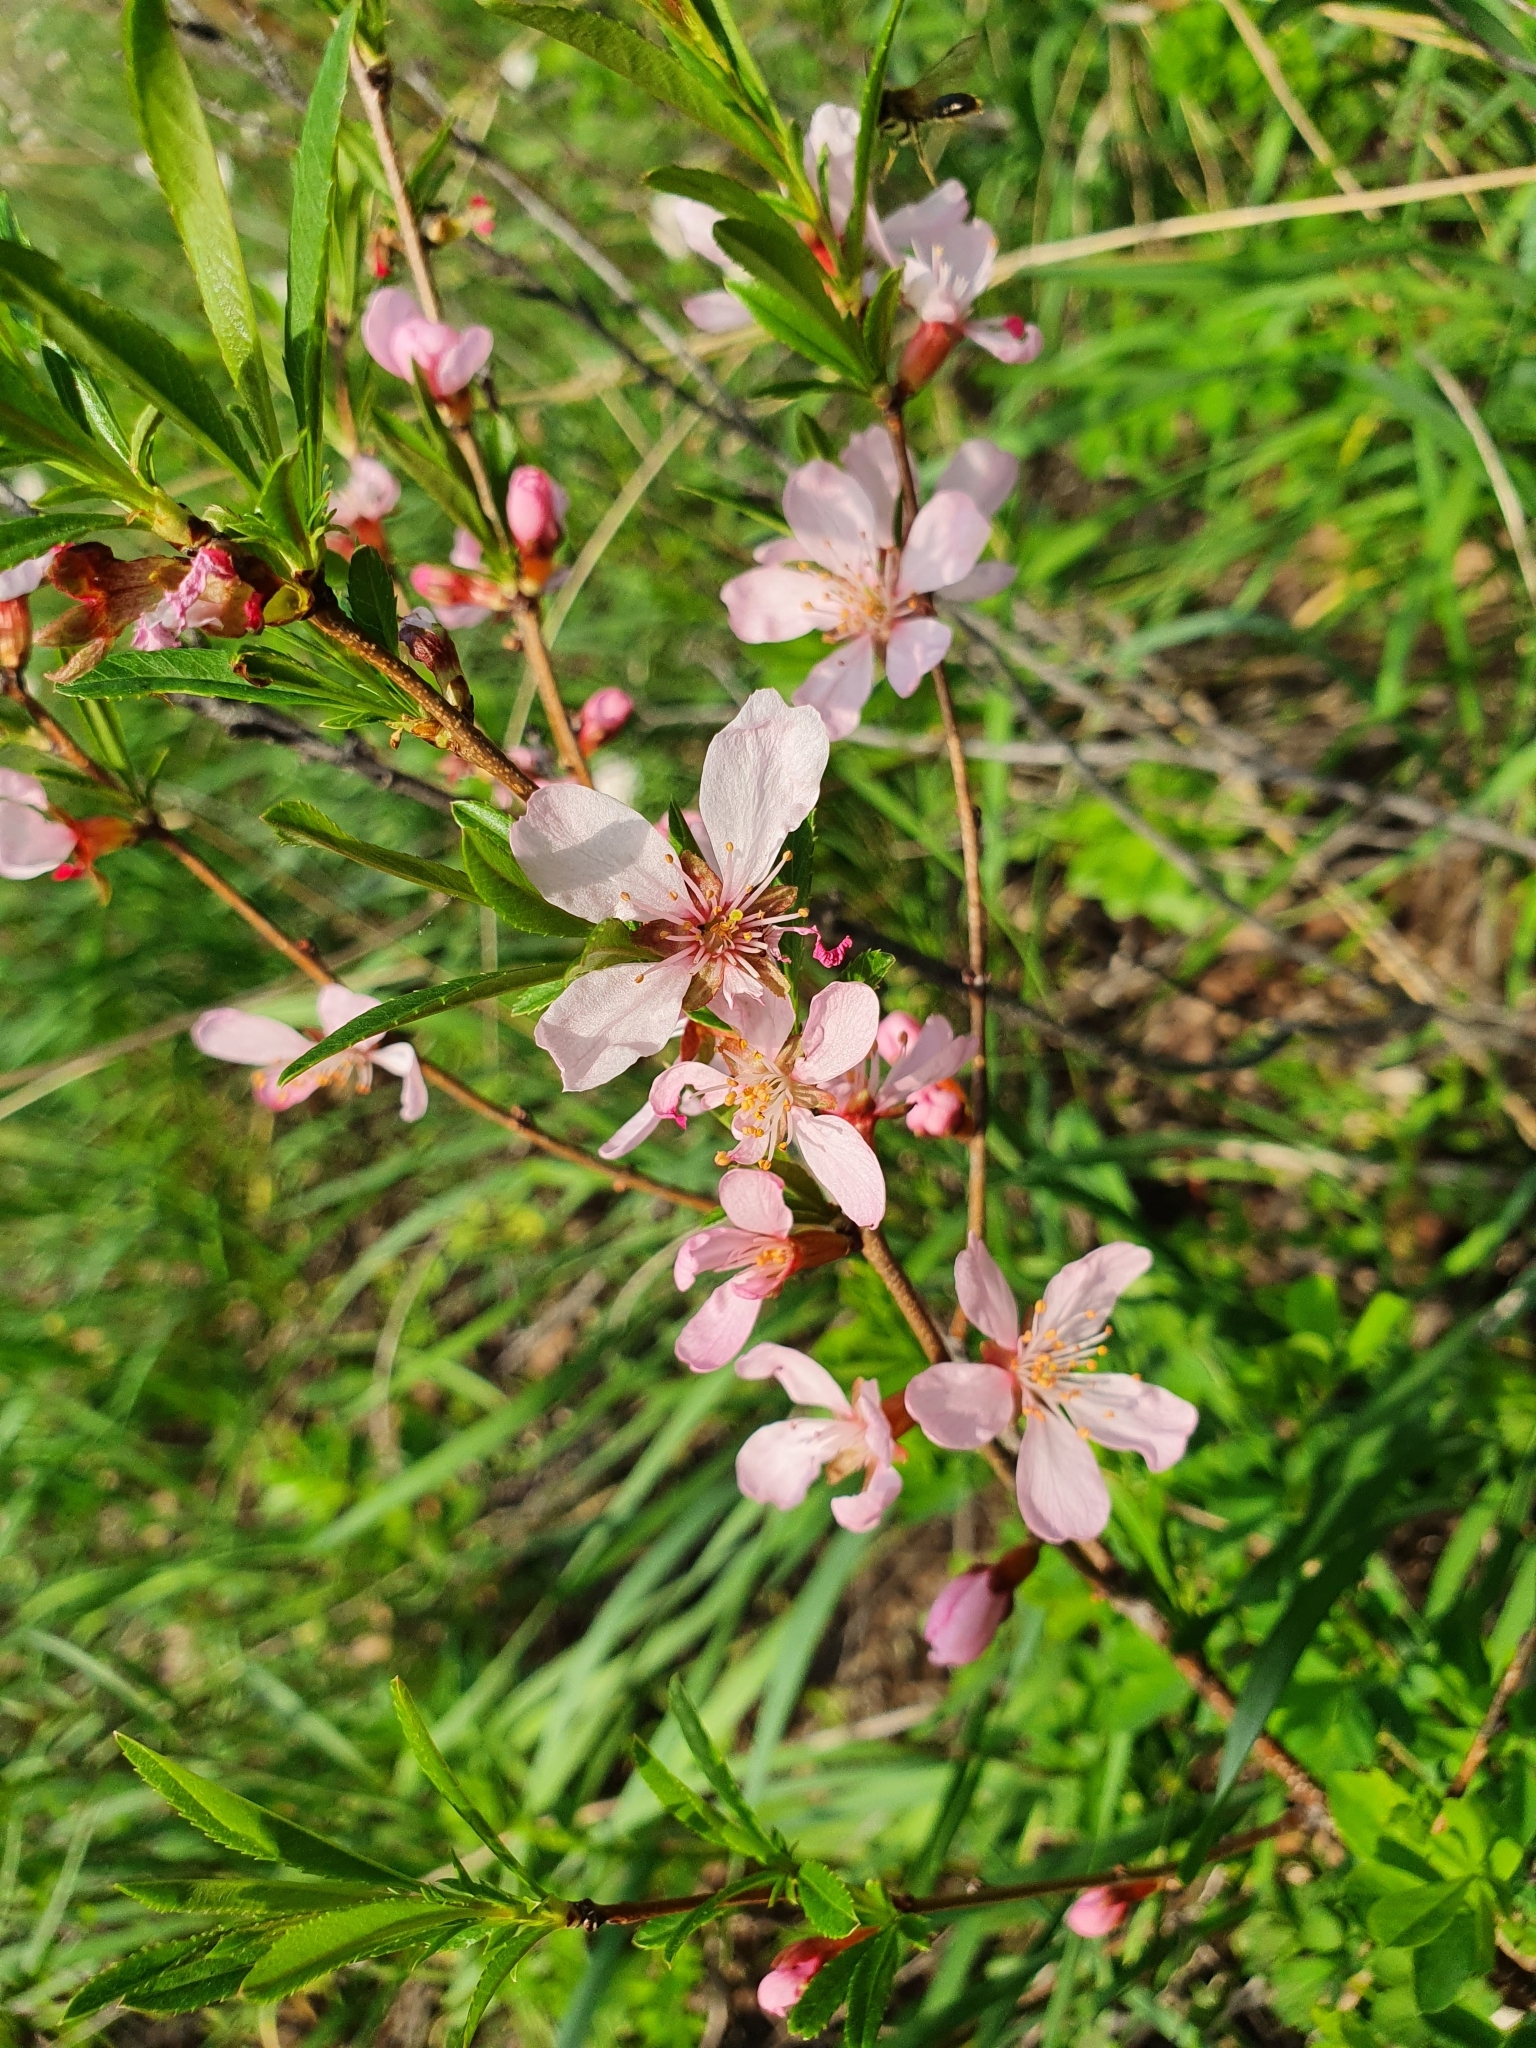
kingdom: Plantae
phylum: Tracheophyta
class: Magnoliopsida
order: Rosales
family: Rosaceae
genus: Prunus
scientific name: Prunus tenella
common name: Dwarf russian almond
